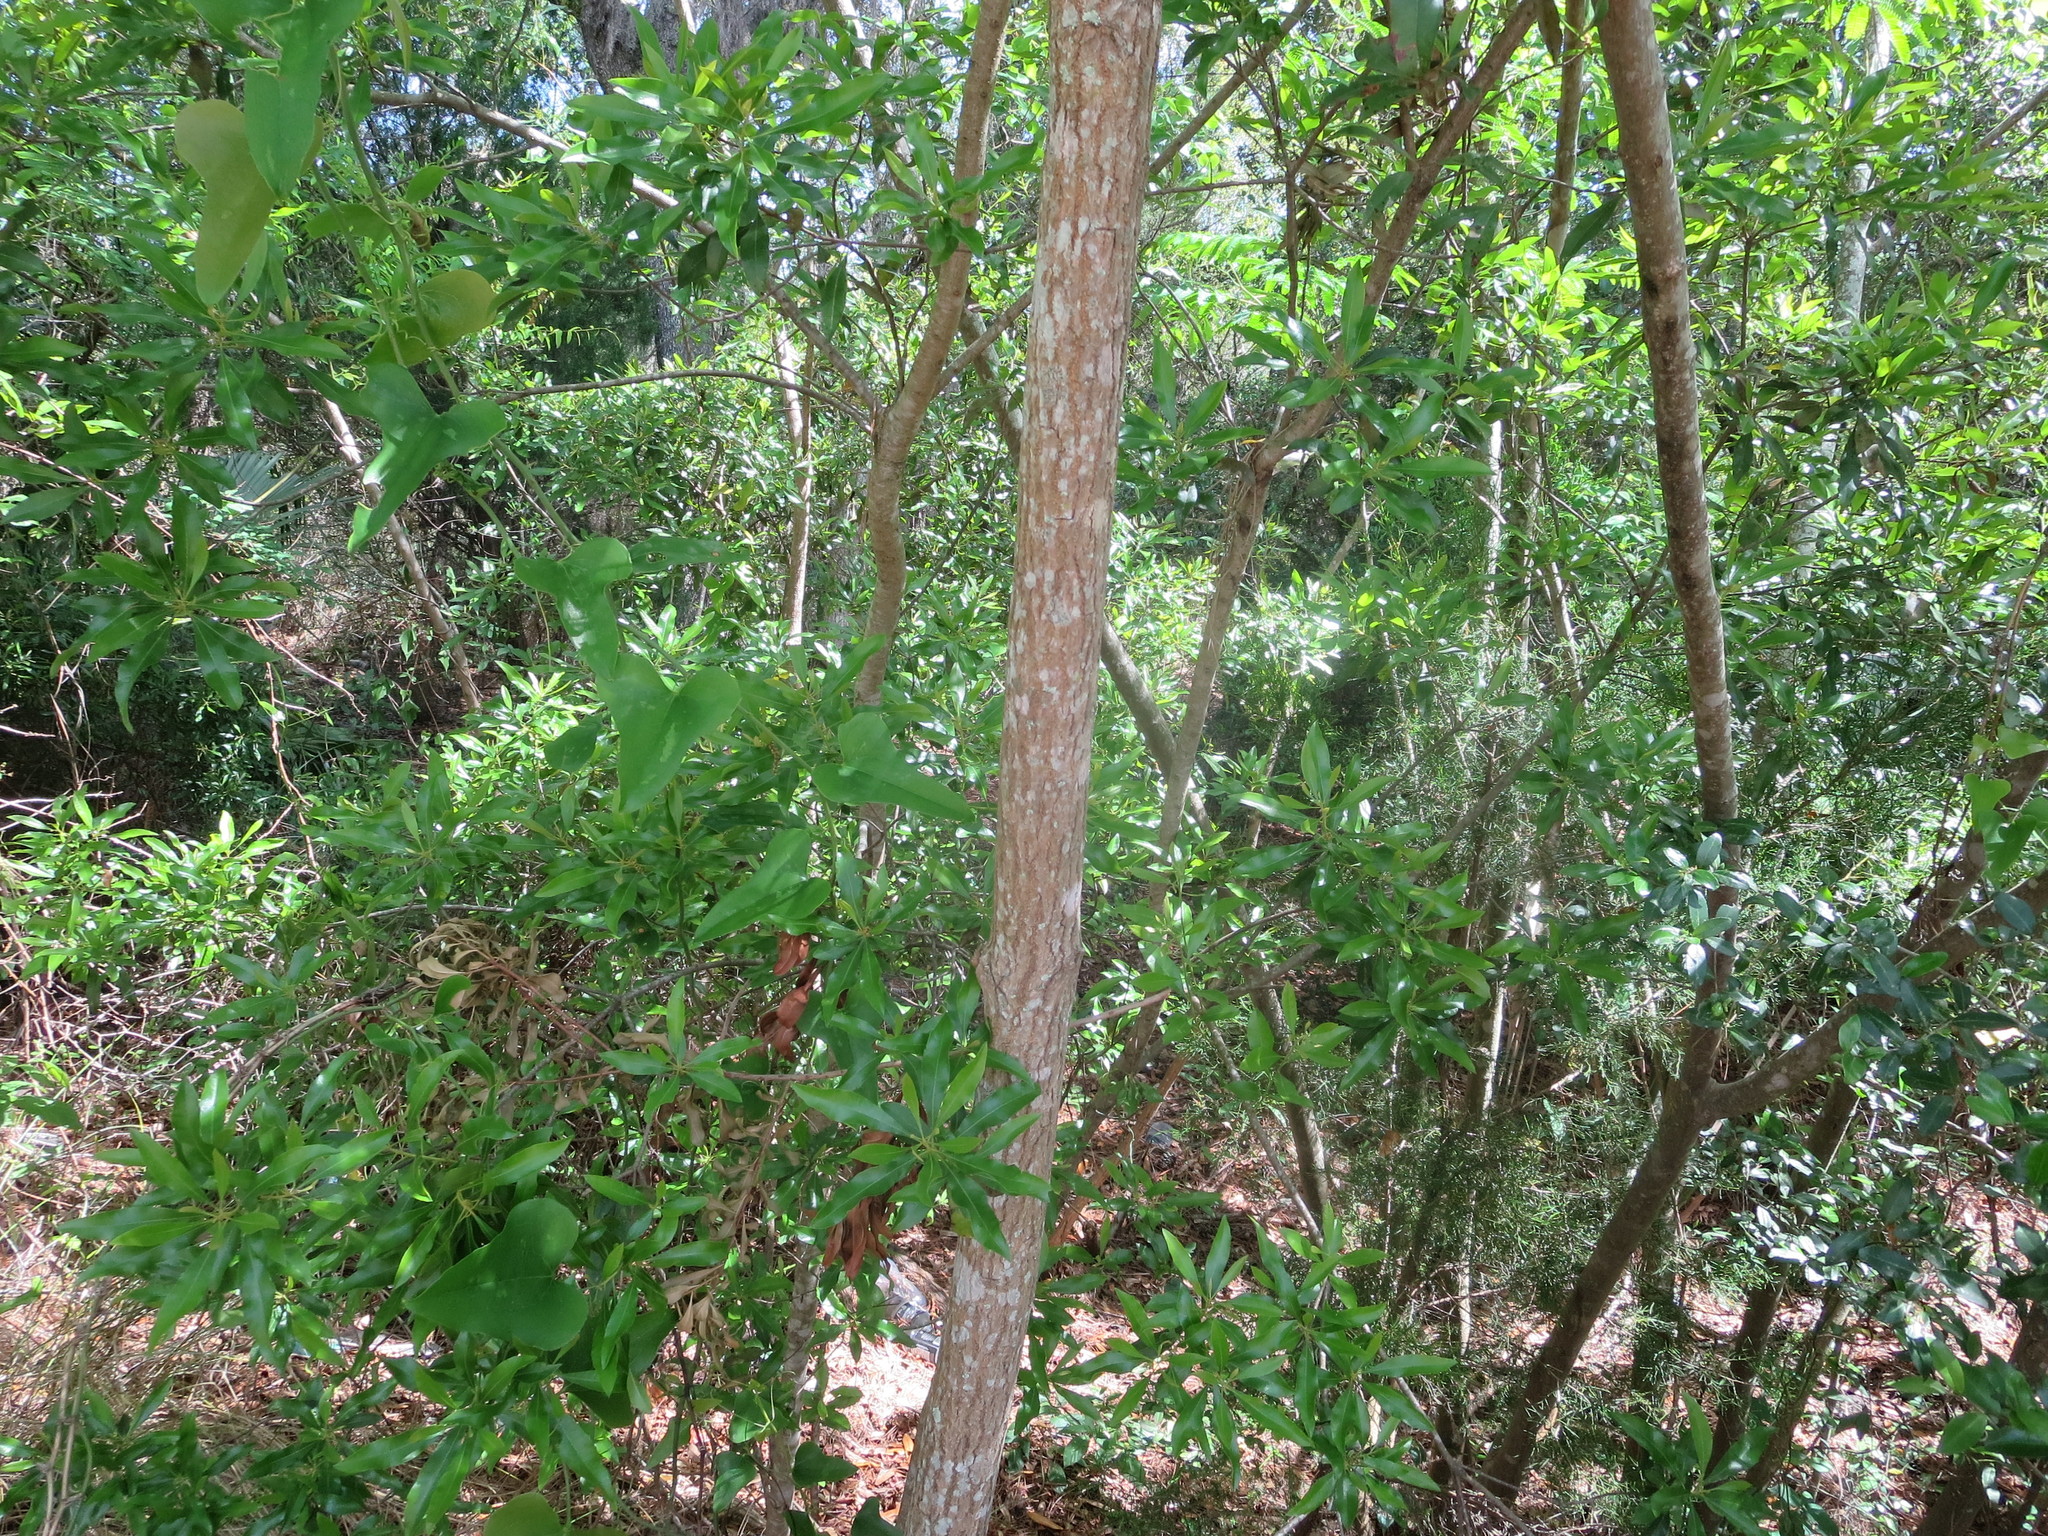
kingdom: Plantae
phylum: Tracheophyta
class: Magnoliopsida
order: Malpighiales
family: Euphorbiaceae
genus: Triadica
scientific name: Triadica sebifera
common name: Chinese tallow
